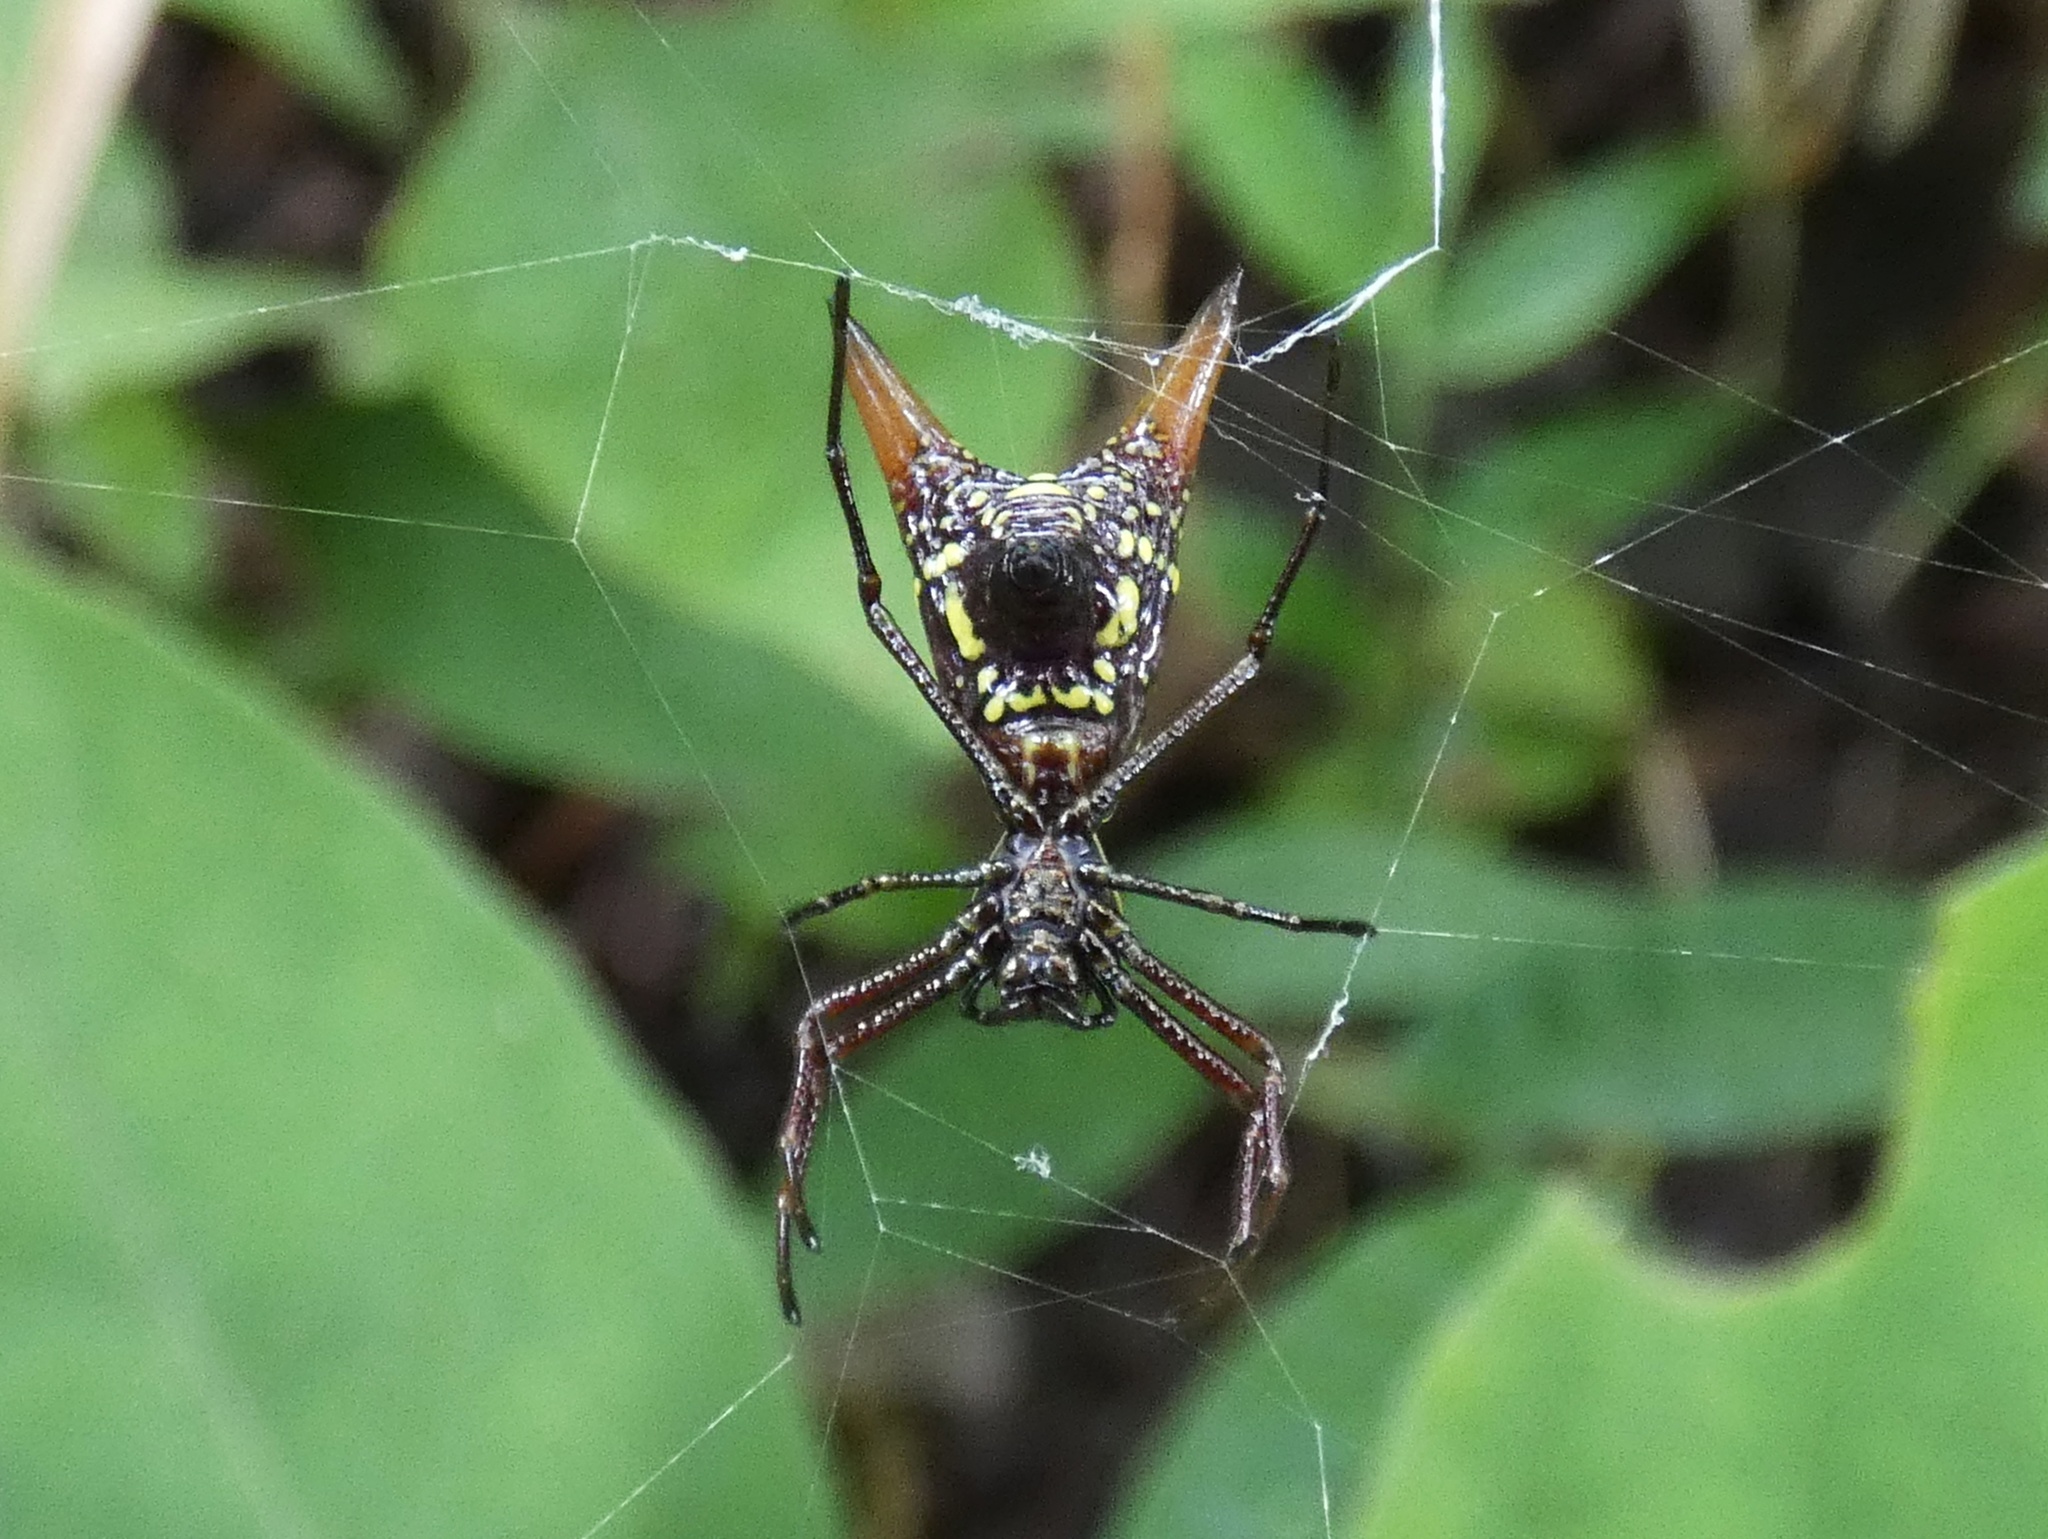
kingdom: Animalia
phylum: Arthropoda
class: Arachnida
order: Araneae
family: Araneidae
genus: Micrathena
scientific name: Micrathena sexspinosa
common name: Orb weavers
